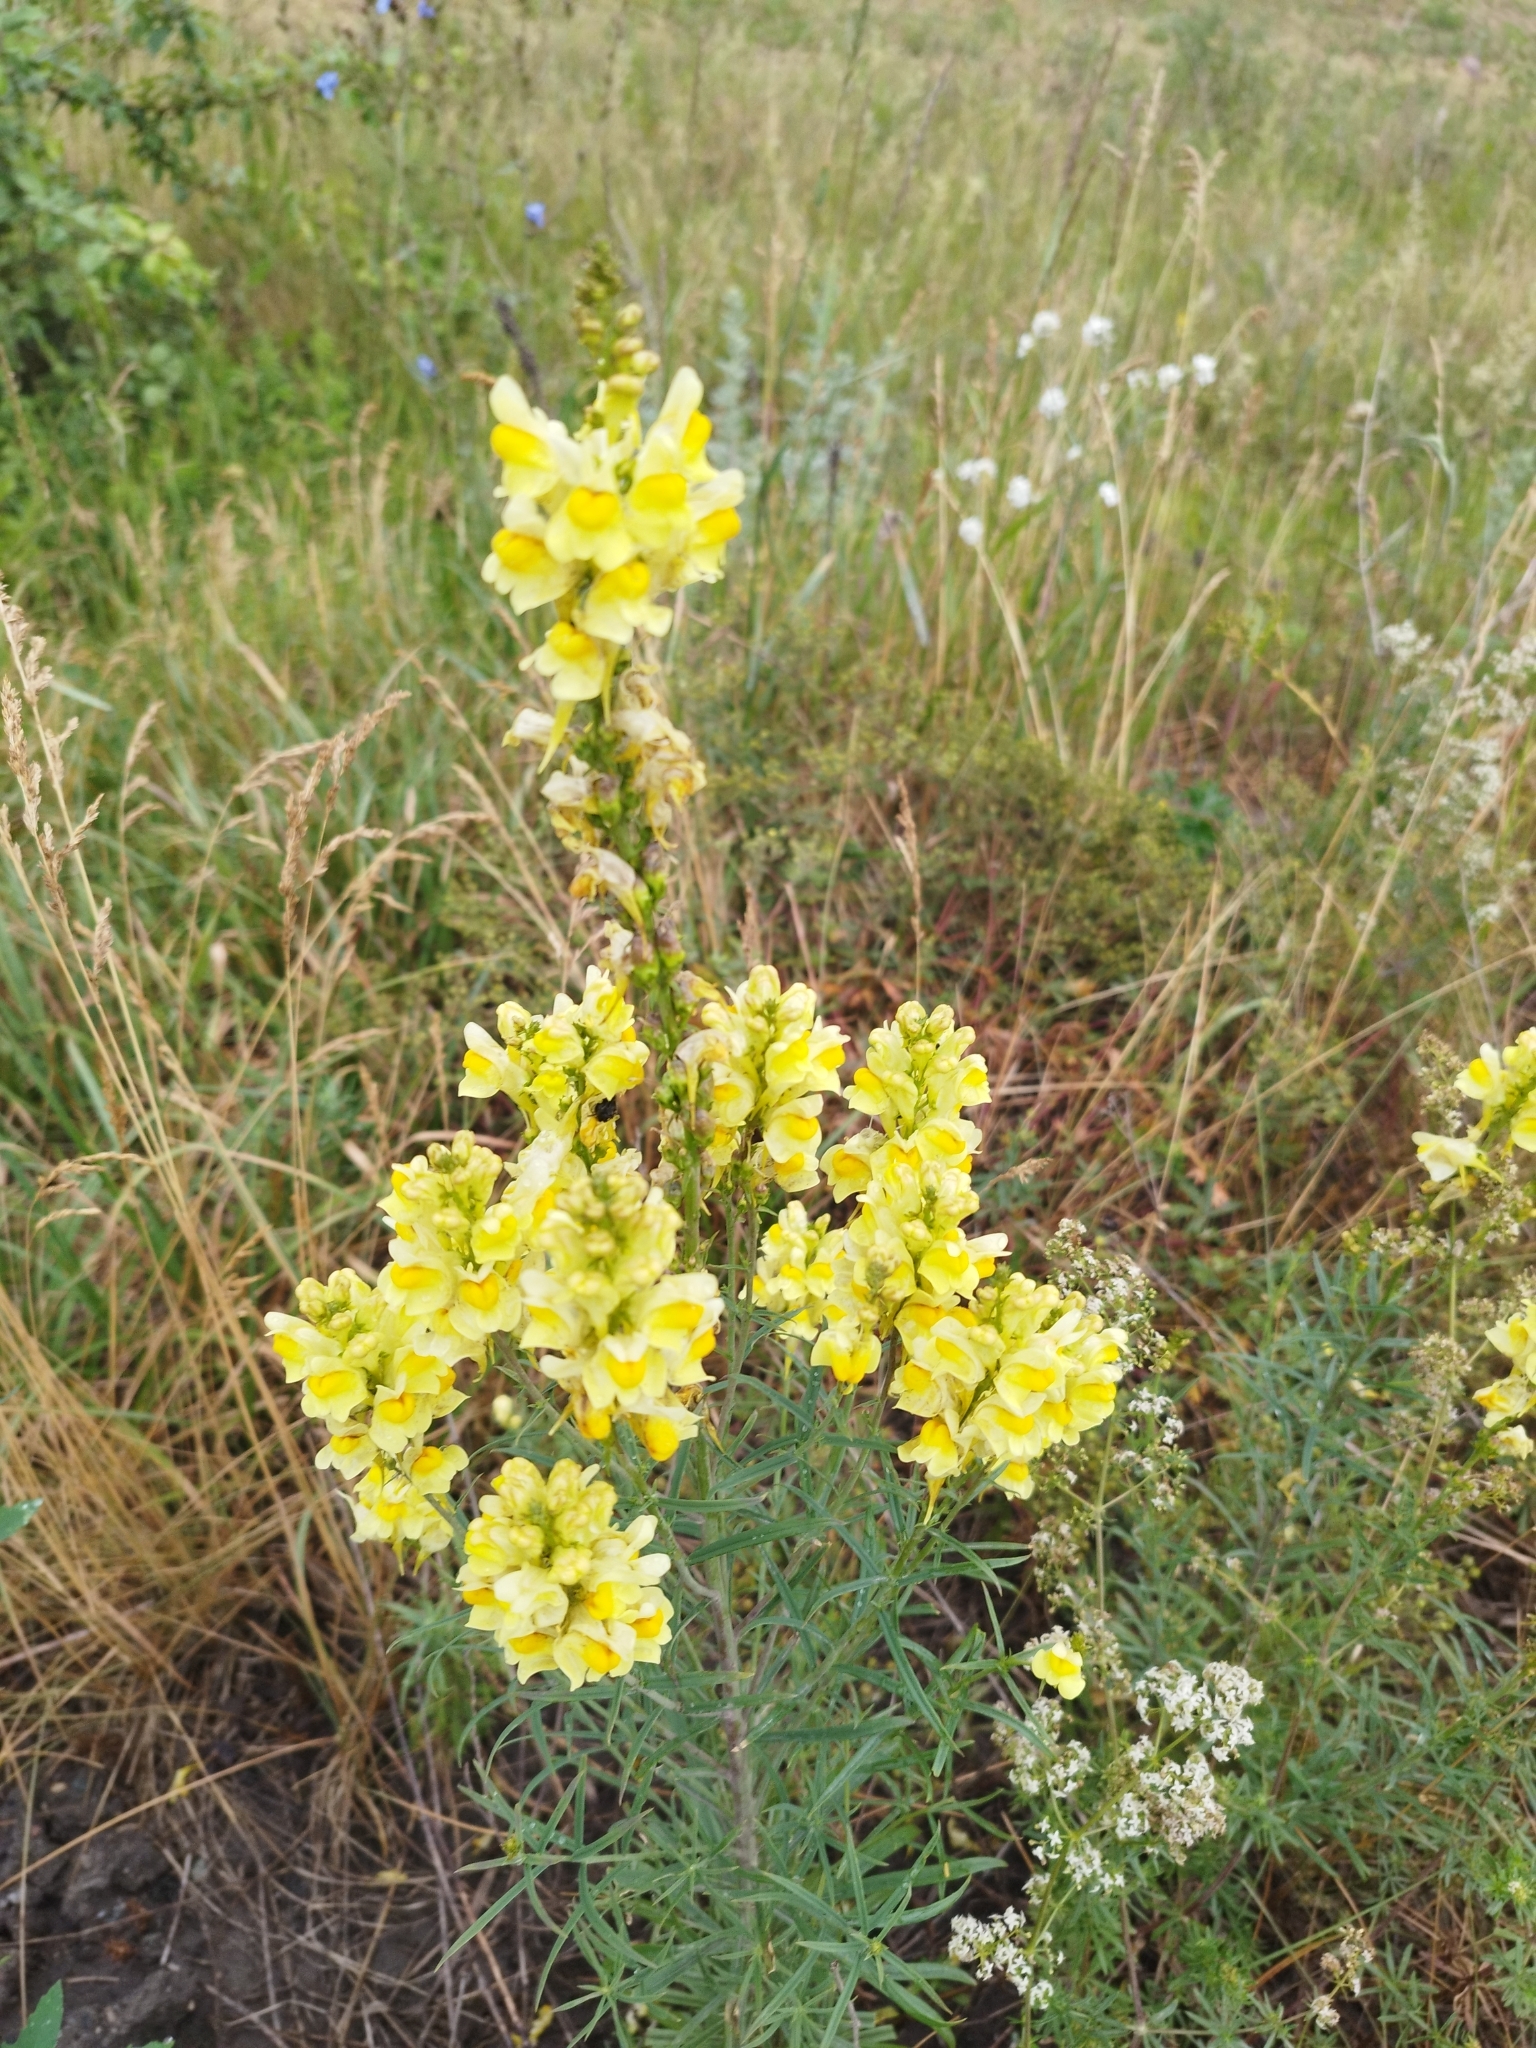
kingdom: Plantae
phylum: Tracheophyta
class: Magnoliopsida
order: Lamiales
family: Plantaginaceae
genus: Linaria
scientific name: Linaria vulgaris
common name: Butter and eggs
